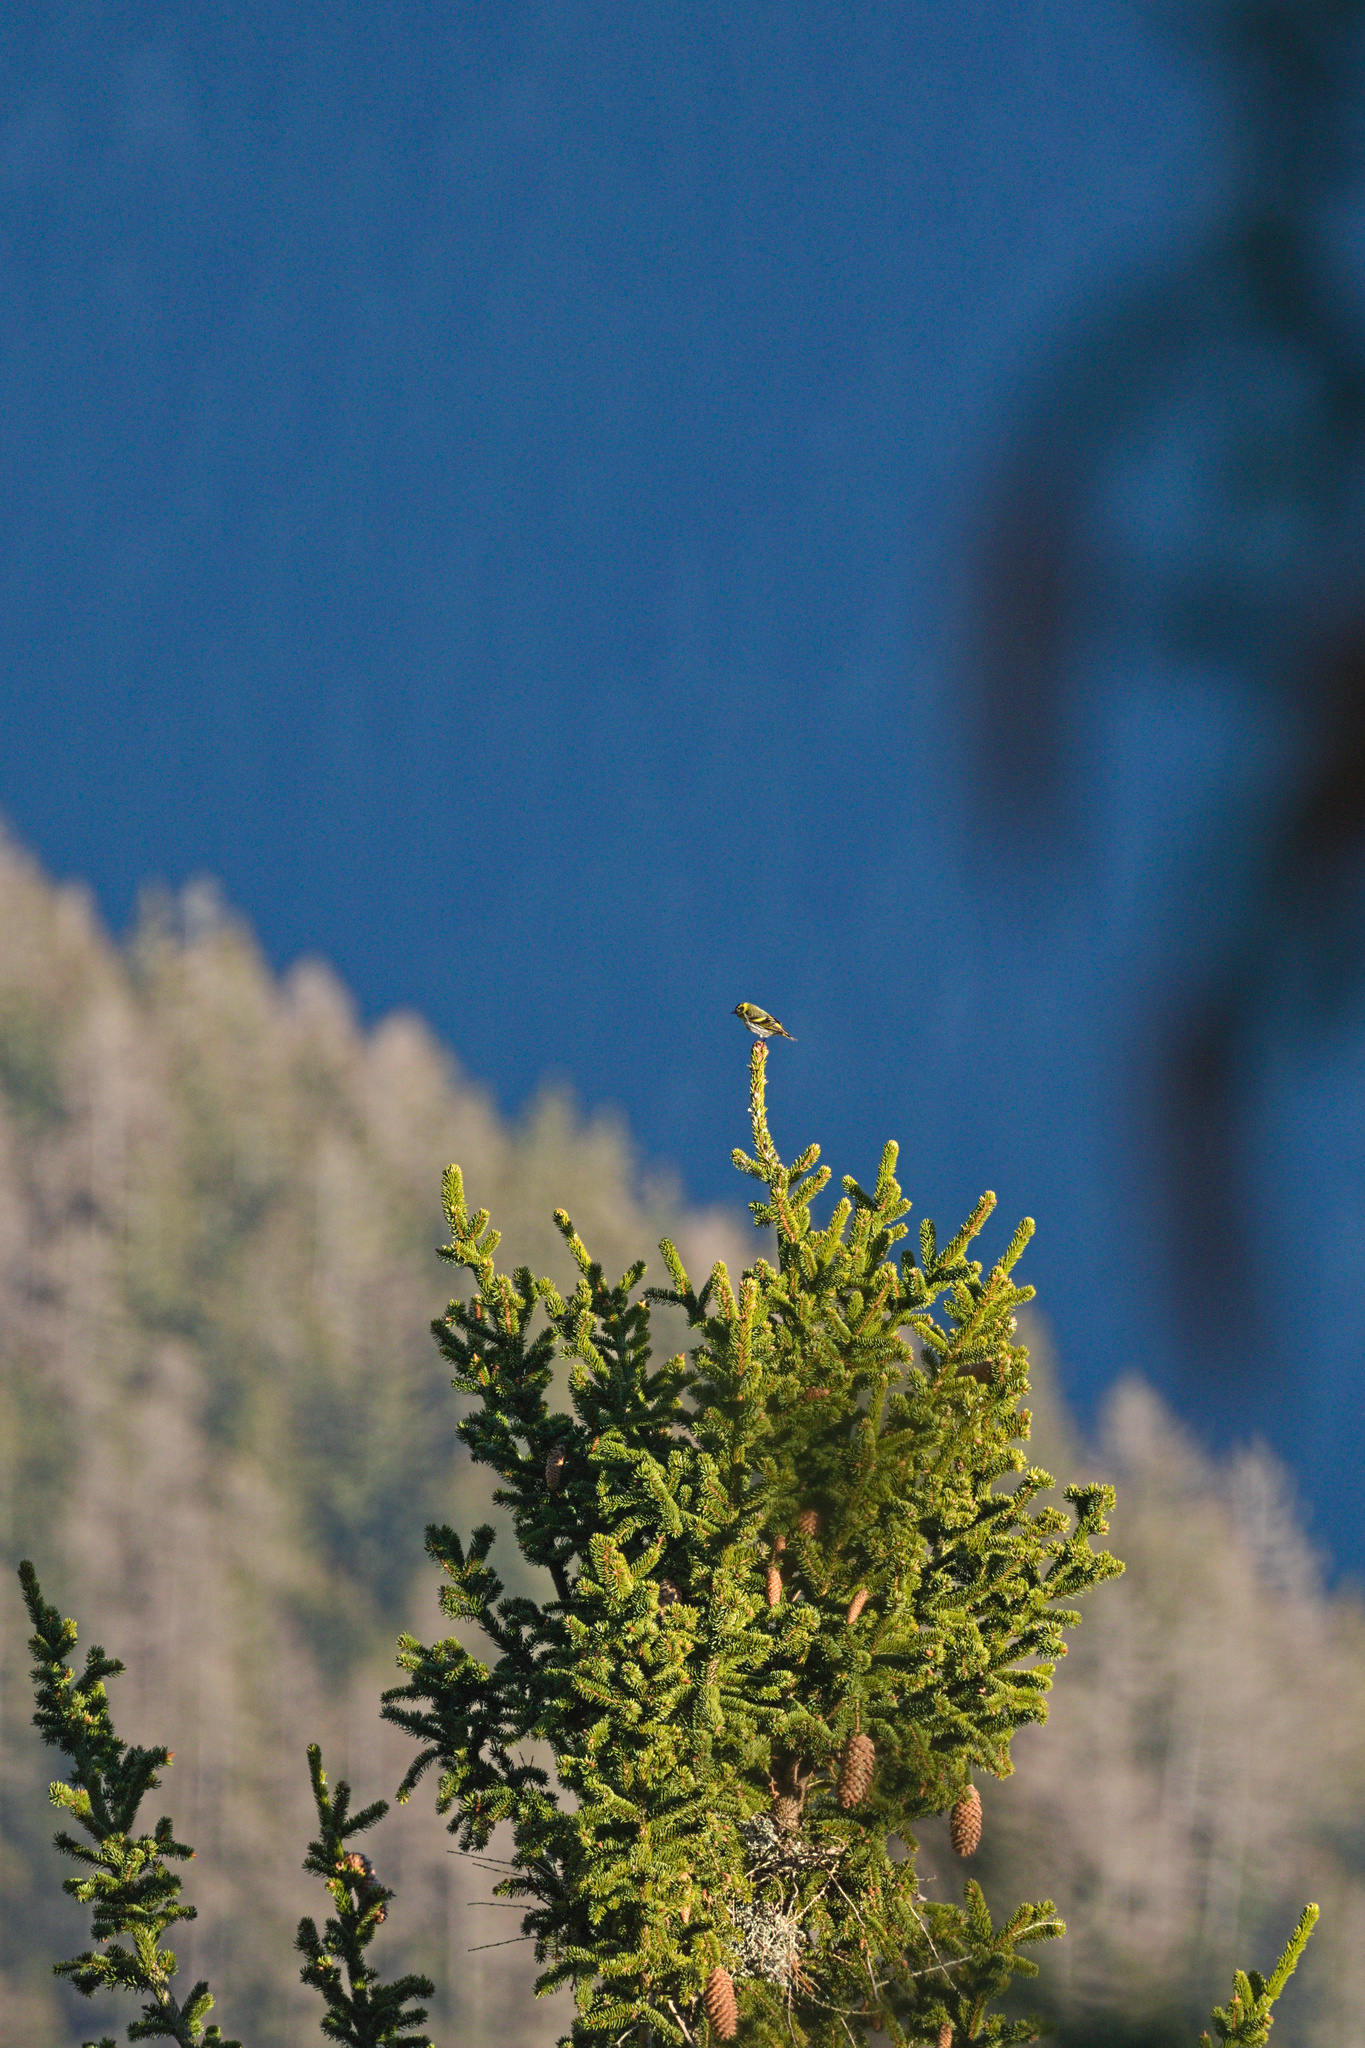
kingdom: Animalia
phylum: Chordata
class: Aves
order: Passeriformes
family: Fringillidae
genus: Spinus
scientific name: Spinus spinus
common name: Eurasian siskin
